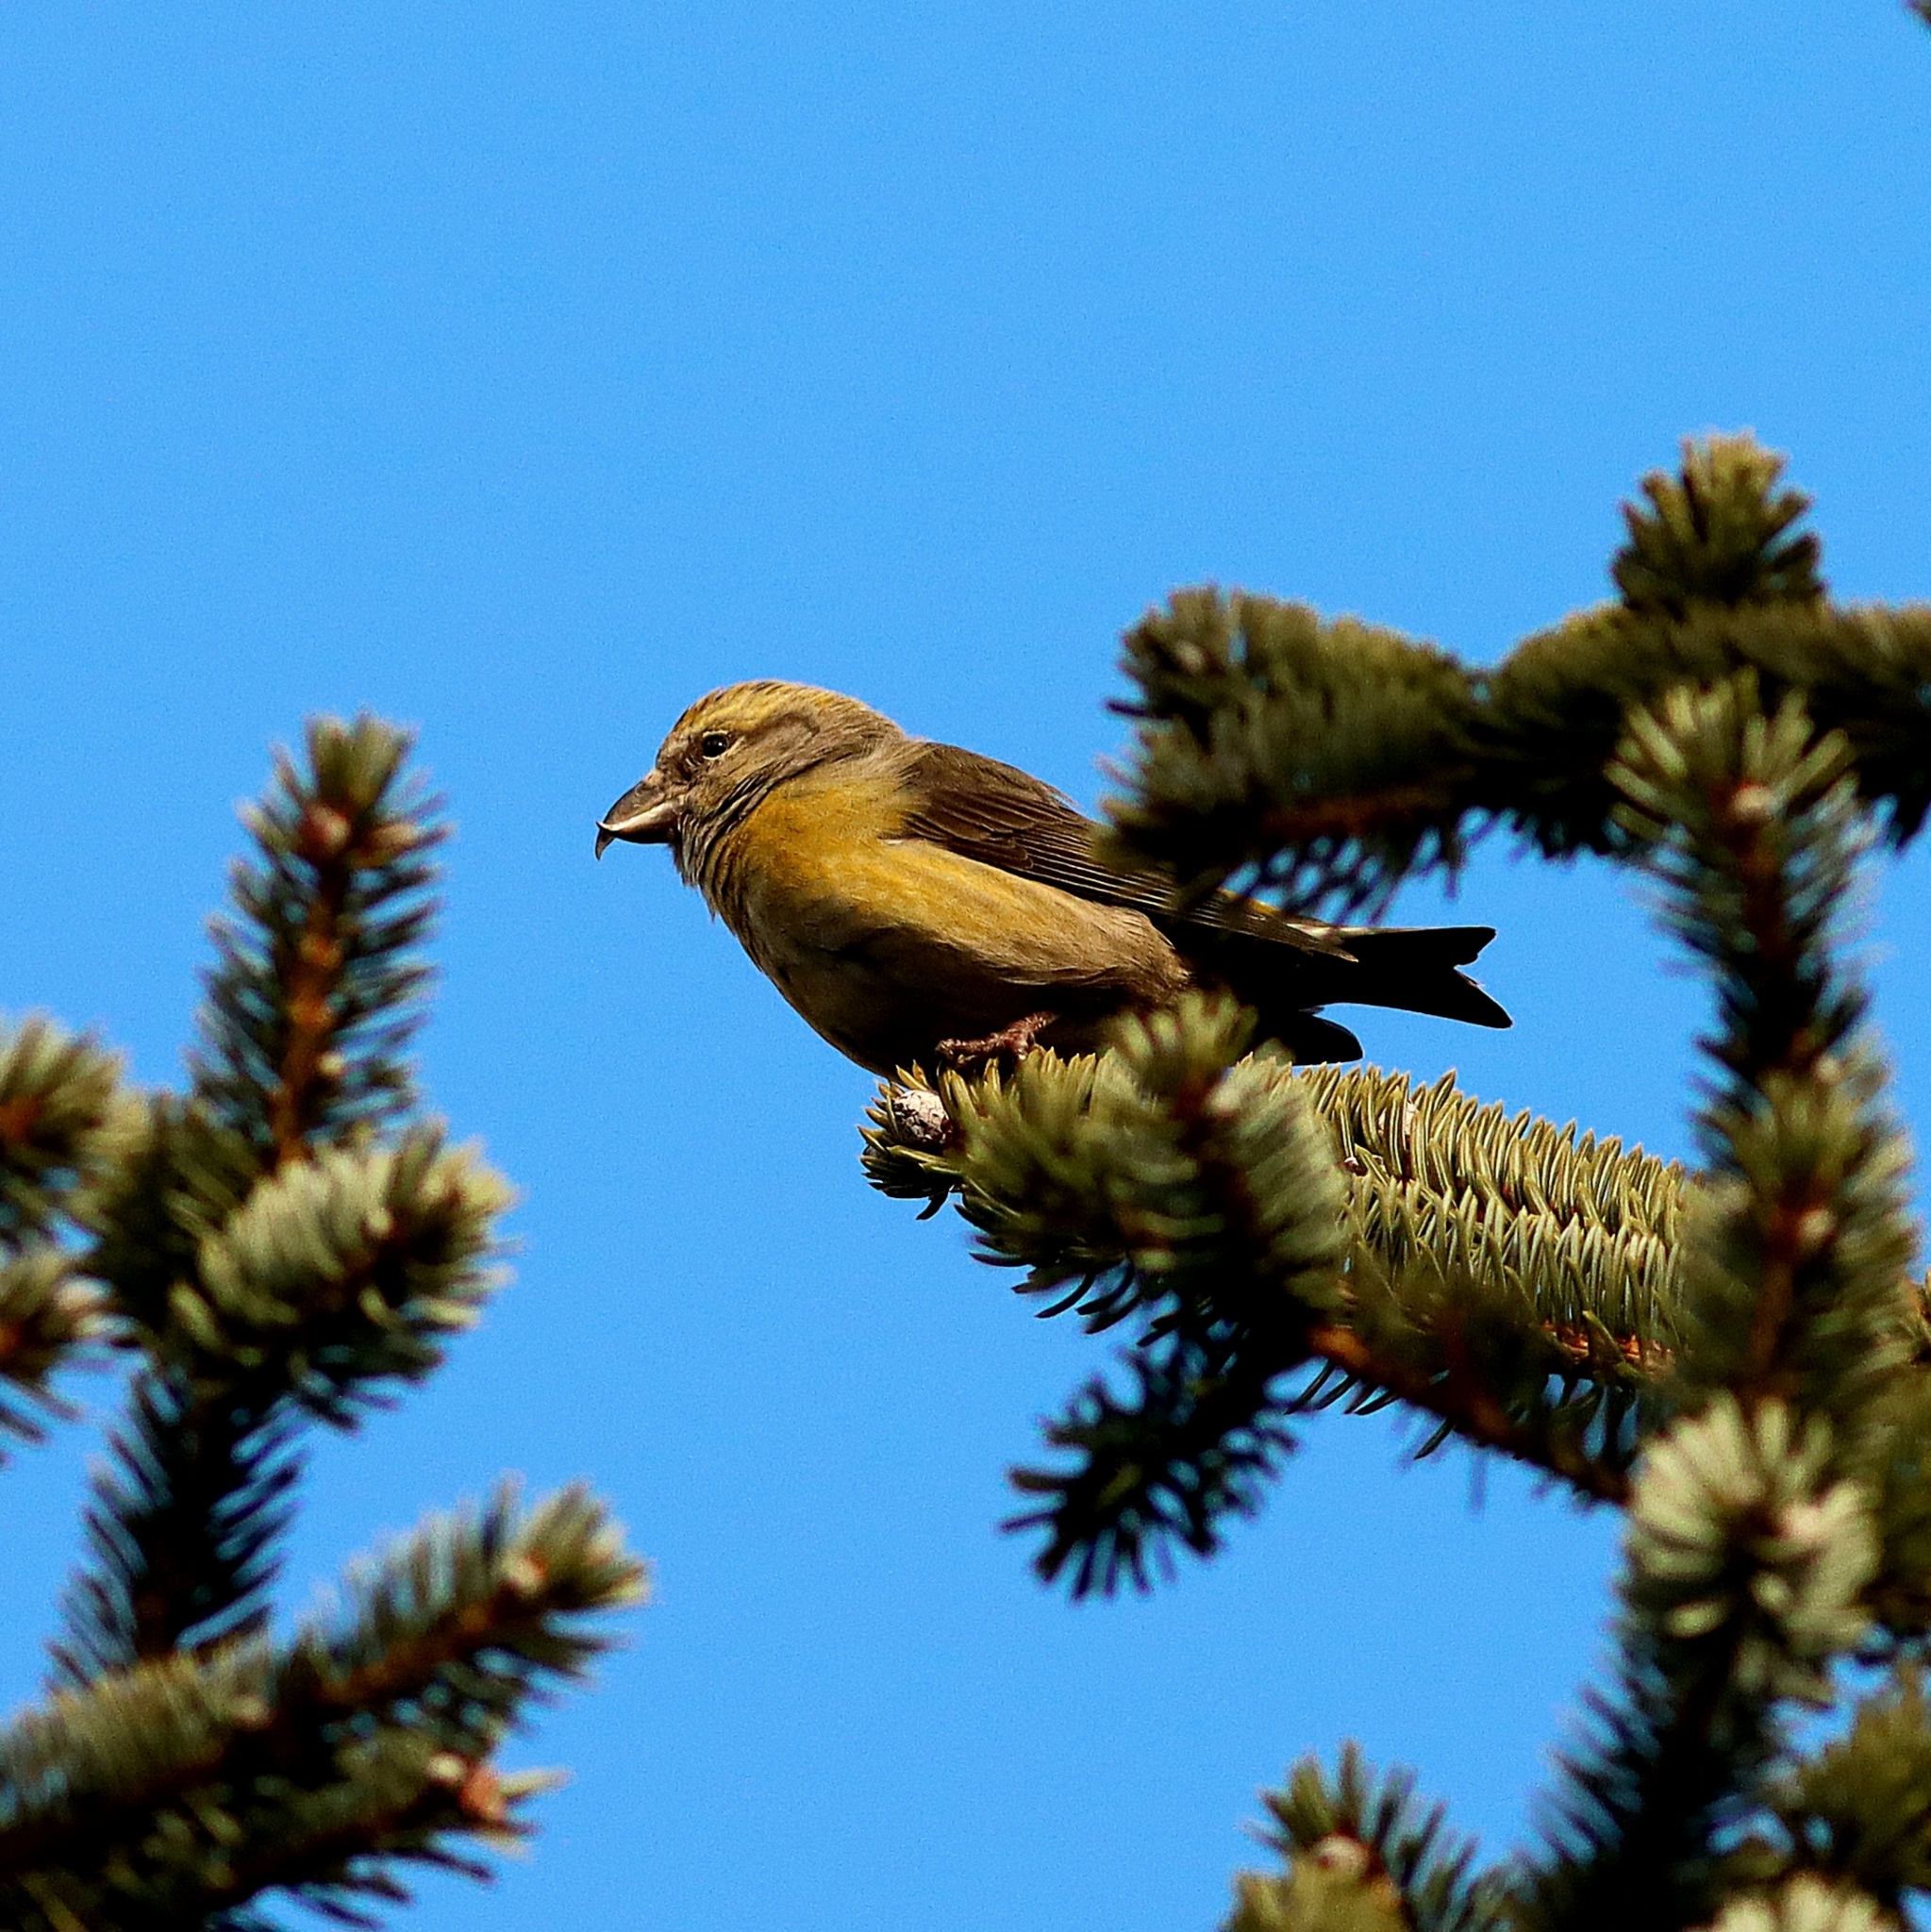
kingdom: Animalia
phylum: Chordata
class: Aves
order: Passeriformes
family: Fringillidae
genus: Loxia
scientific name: Loxia curvirostra
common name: Red crossbill
